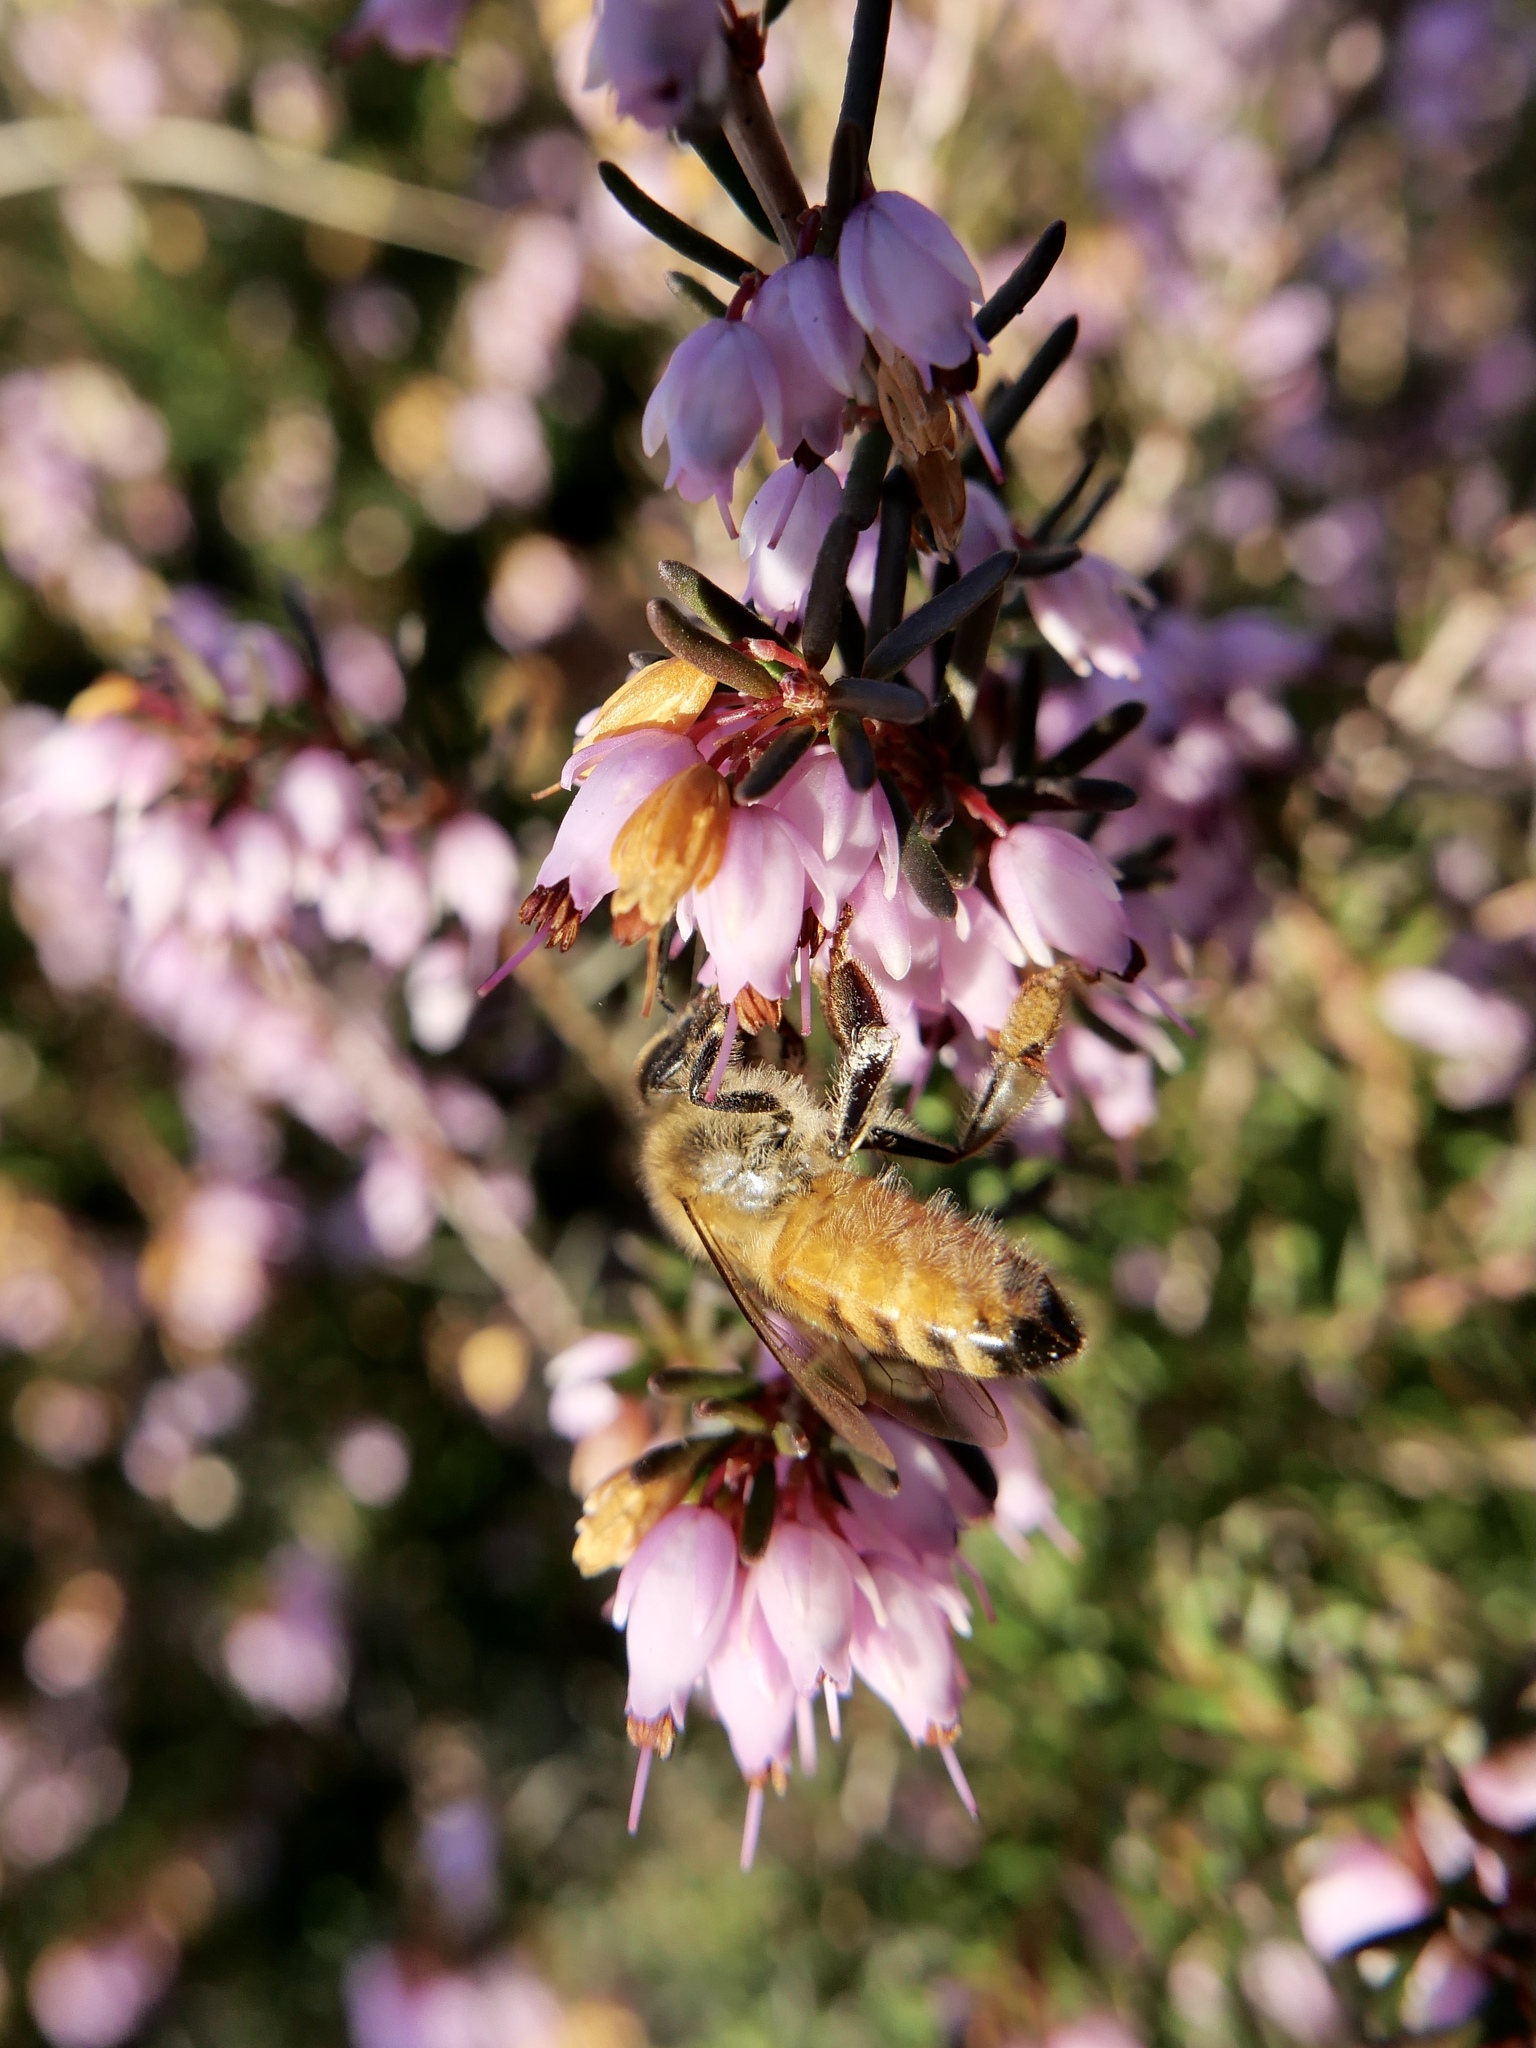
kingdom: Animalia
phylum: Arthropoda
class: Insecta
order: Hymenoptera
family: Apidae
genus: Apis
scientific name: Apis mellifera
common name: Honey bee
